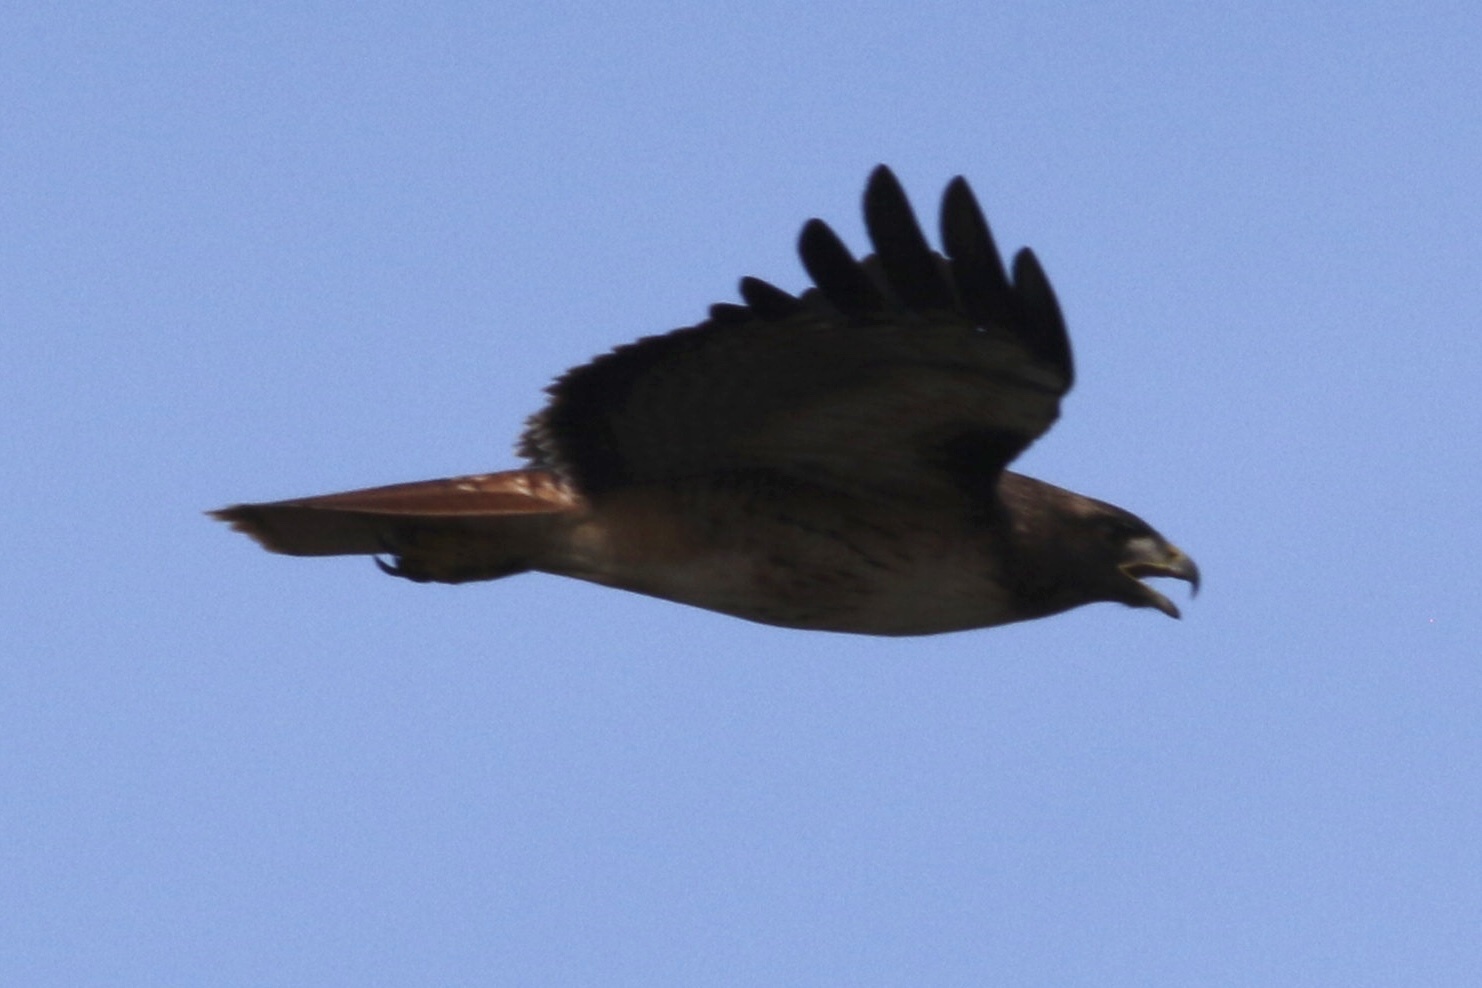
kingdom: Animalia
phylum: Chordata
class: Aves
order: Accipitriformes
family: Accipitridae
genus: Buteo
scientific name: Buteo jamaicensis
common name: Red-tailed hawk
